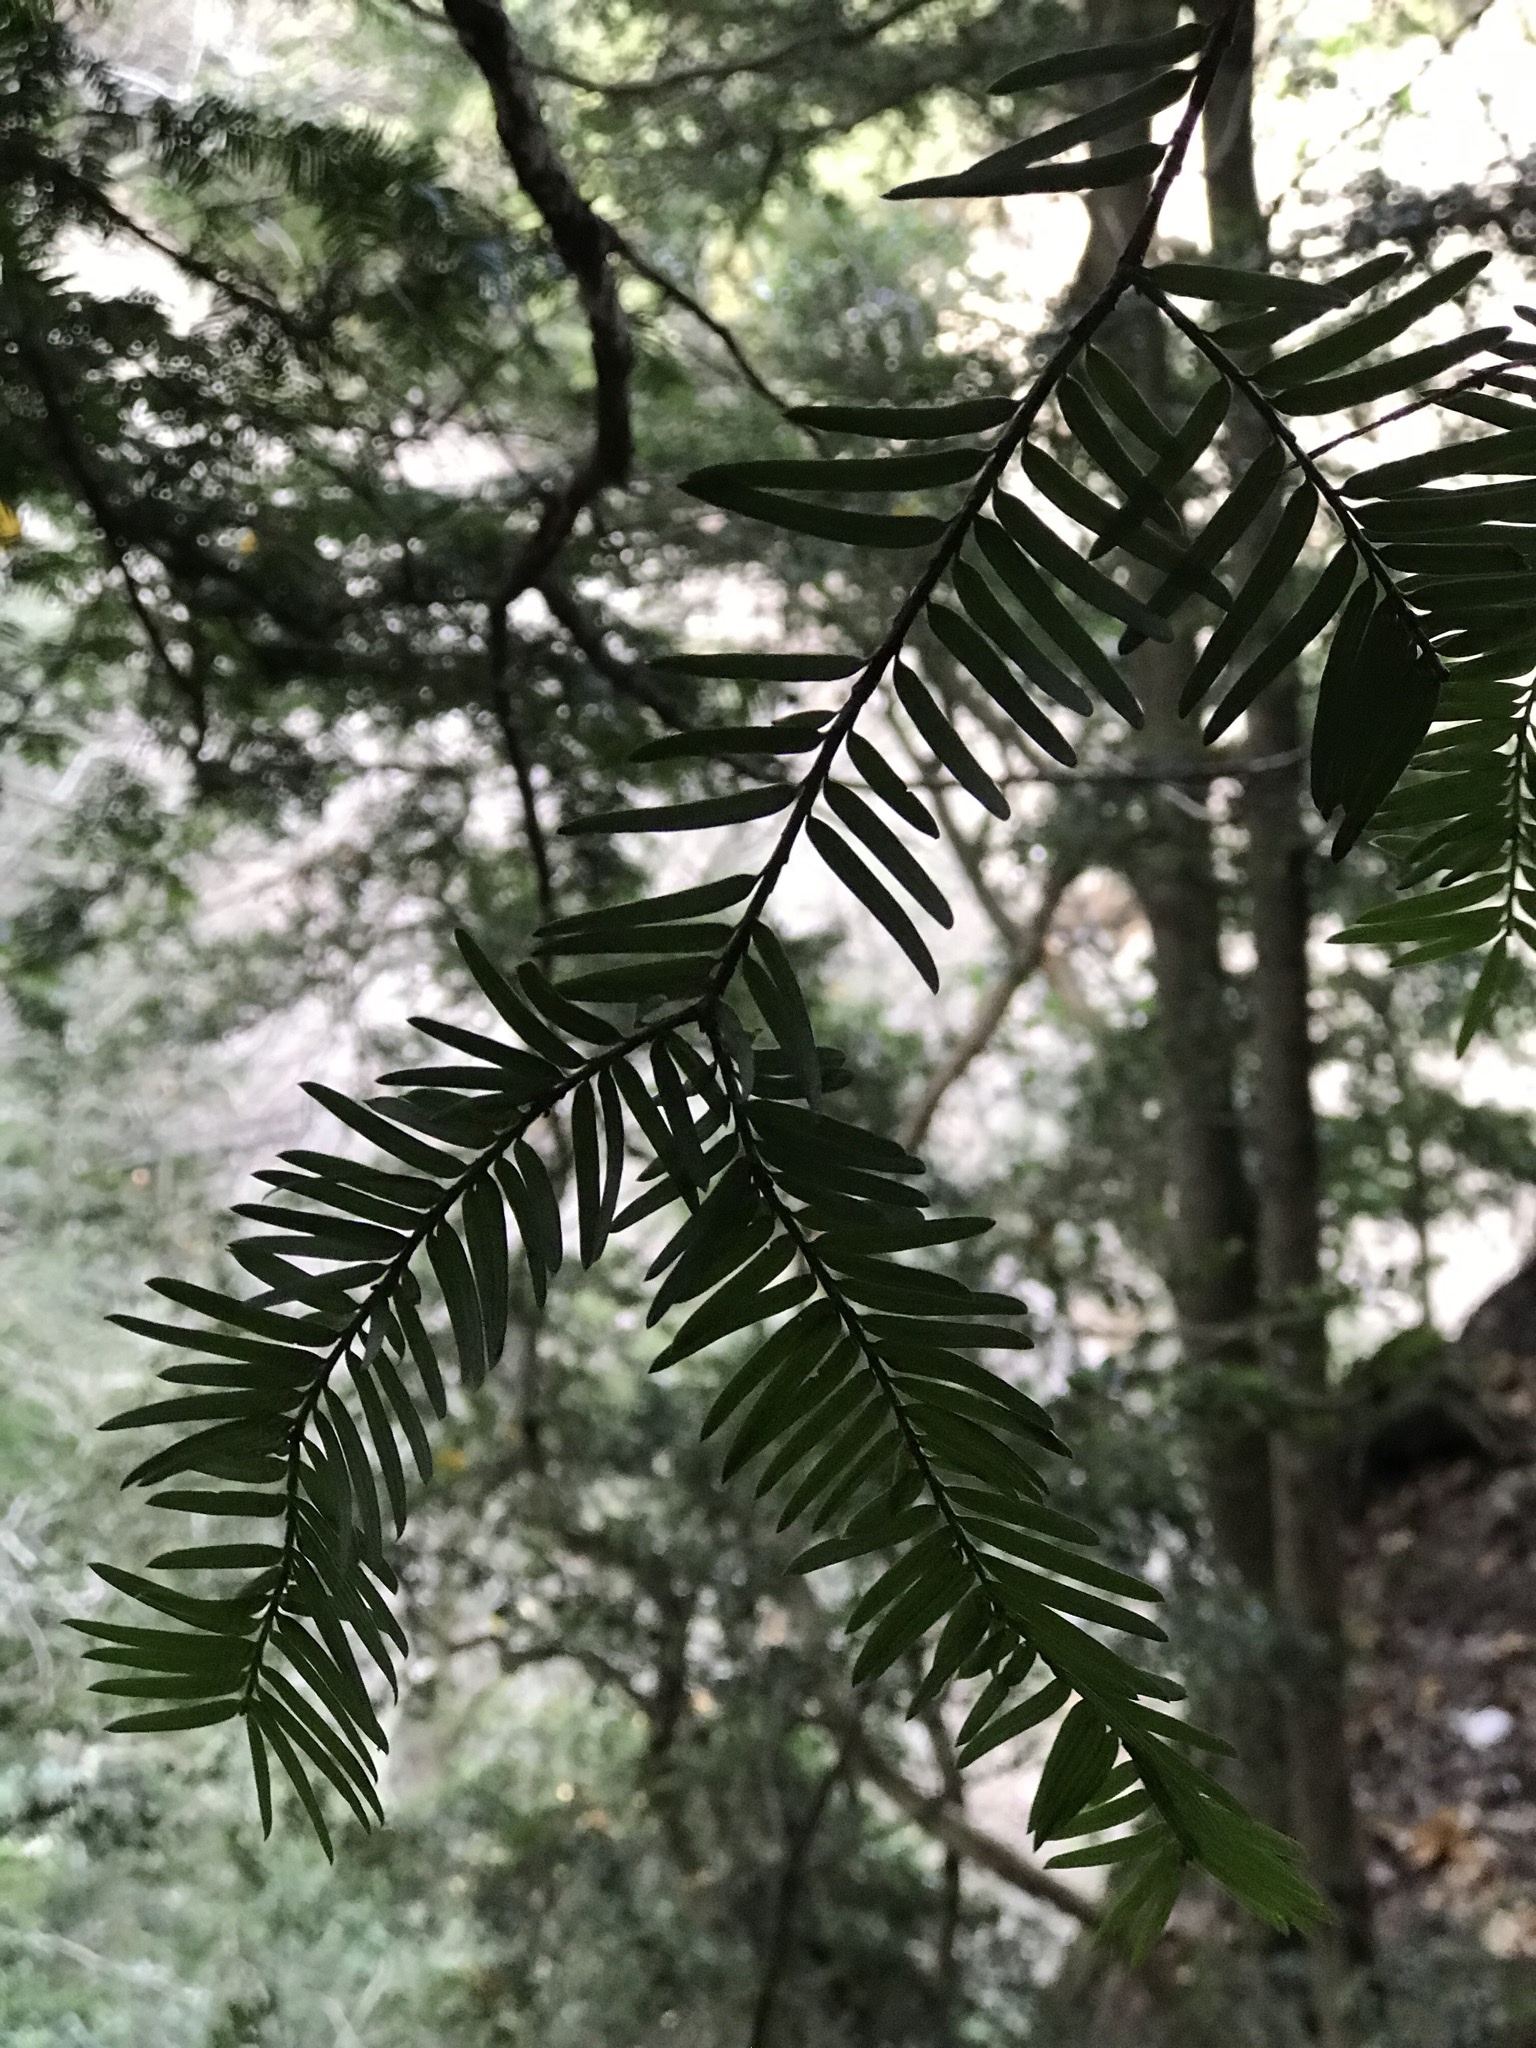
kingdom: Plantae
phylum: Tracheophyta
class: Pinopsida
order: Pinales
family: Taxaceae
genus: Taxus
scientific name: Taxus baccata
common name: Yew
